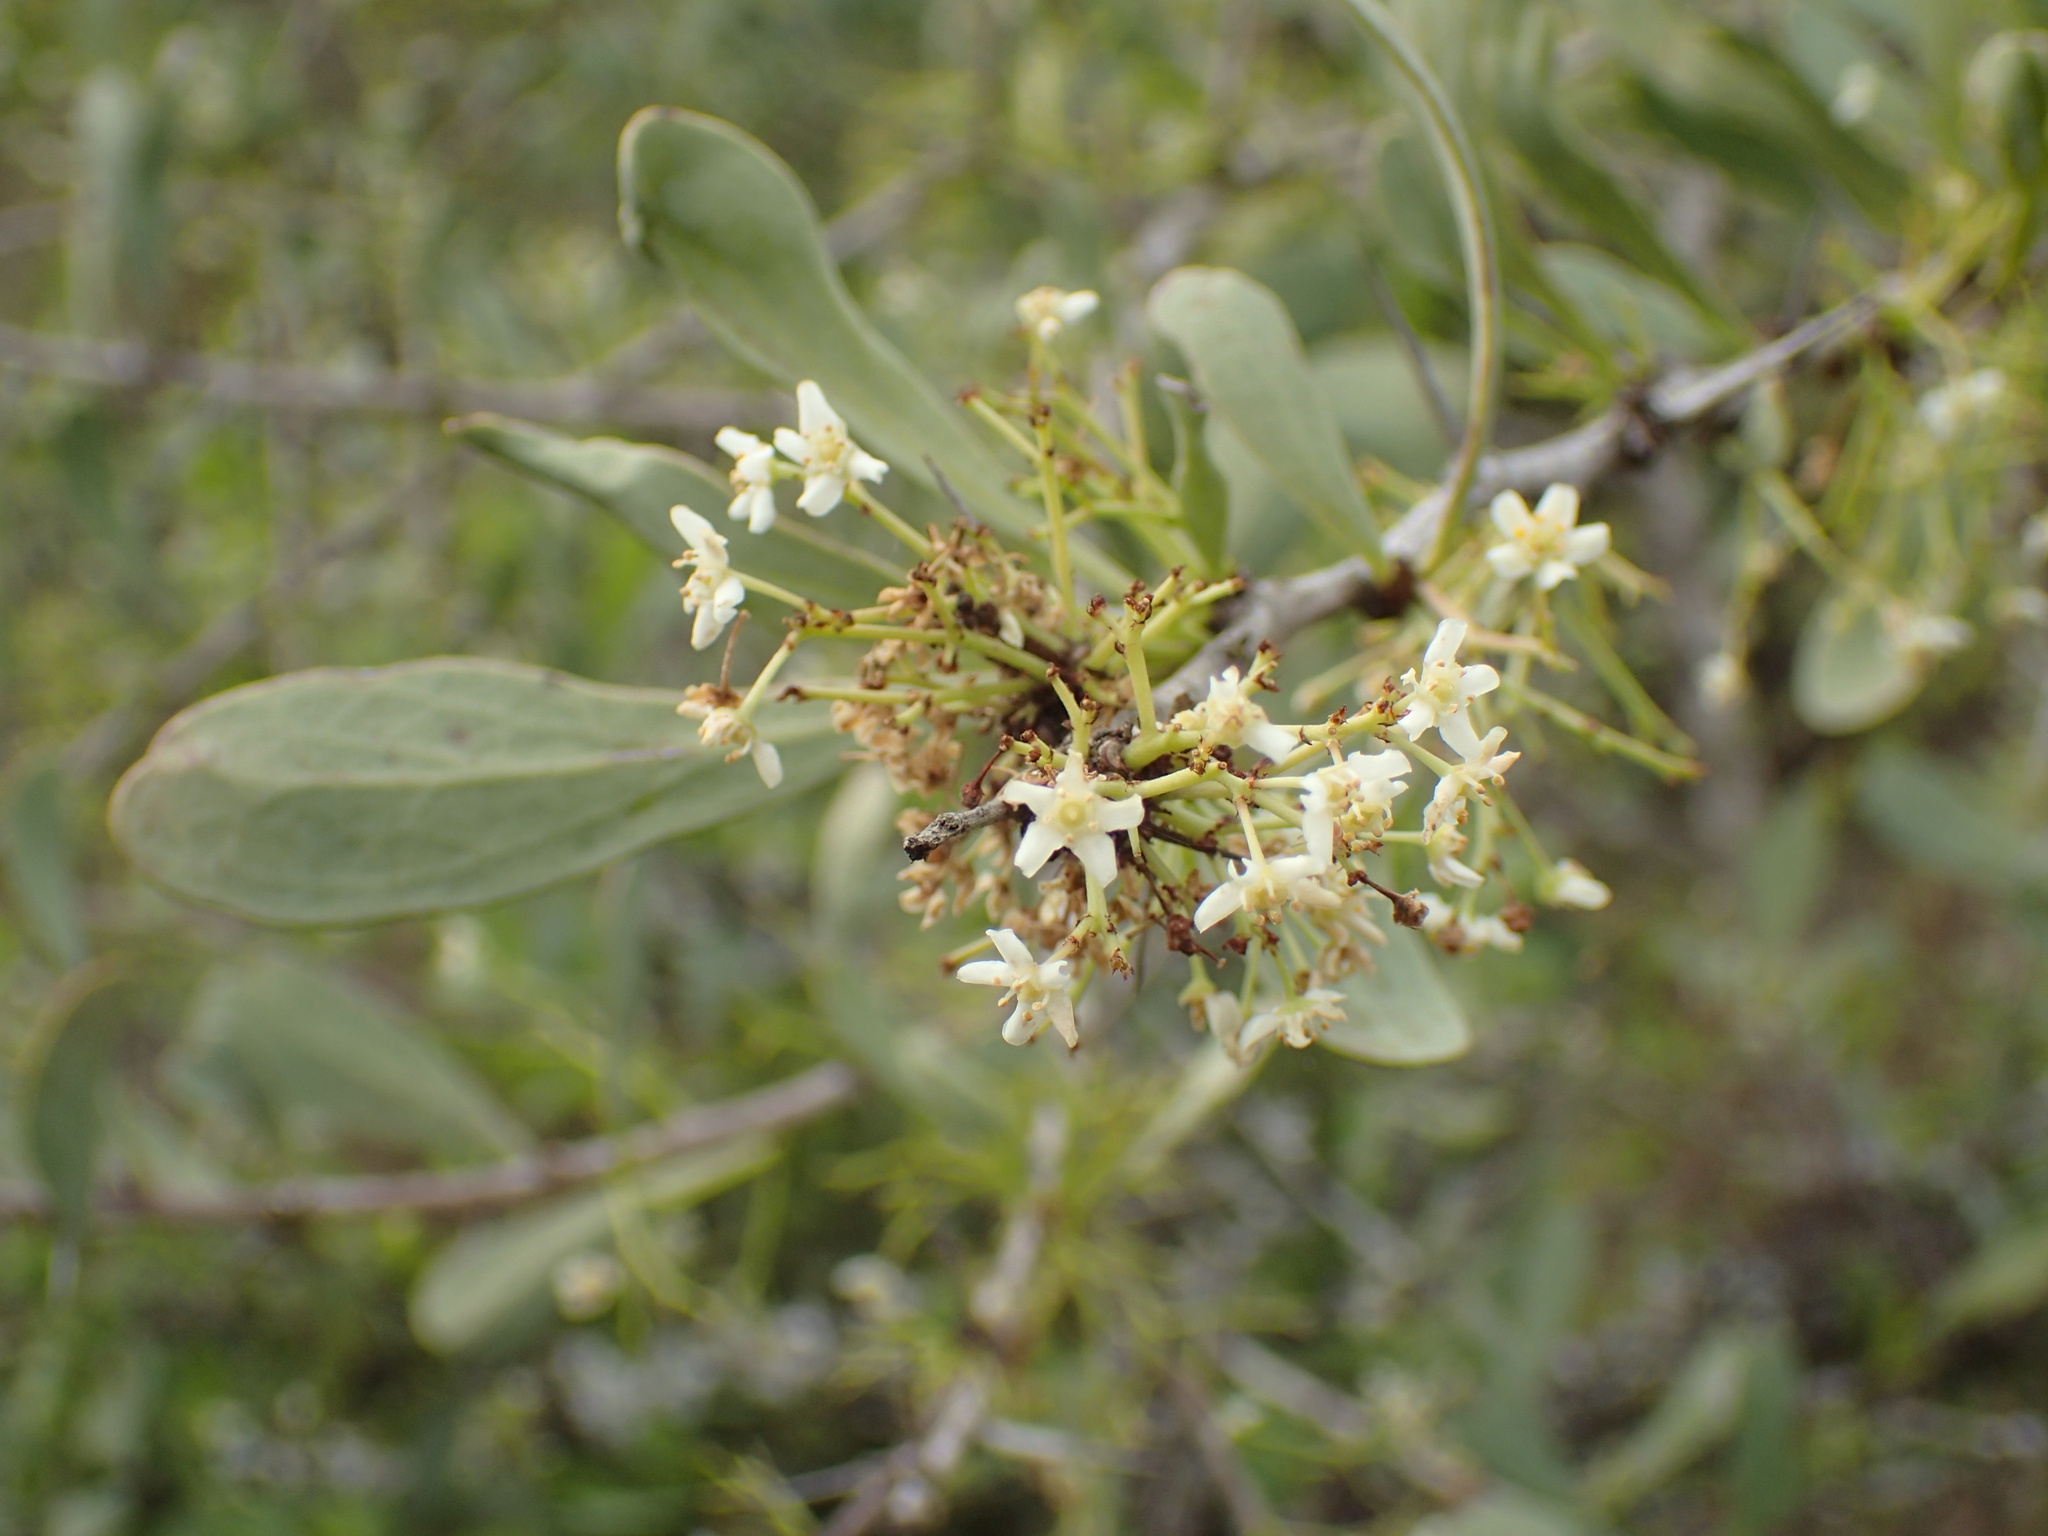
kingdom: Plantae
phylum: Tracheophyta
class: Magnoliopsida
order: Celastrales
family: Celastraceae
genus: Gymnosporia
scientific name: Gymnosporia glaucophylla
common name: Blue spike-thorn
